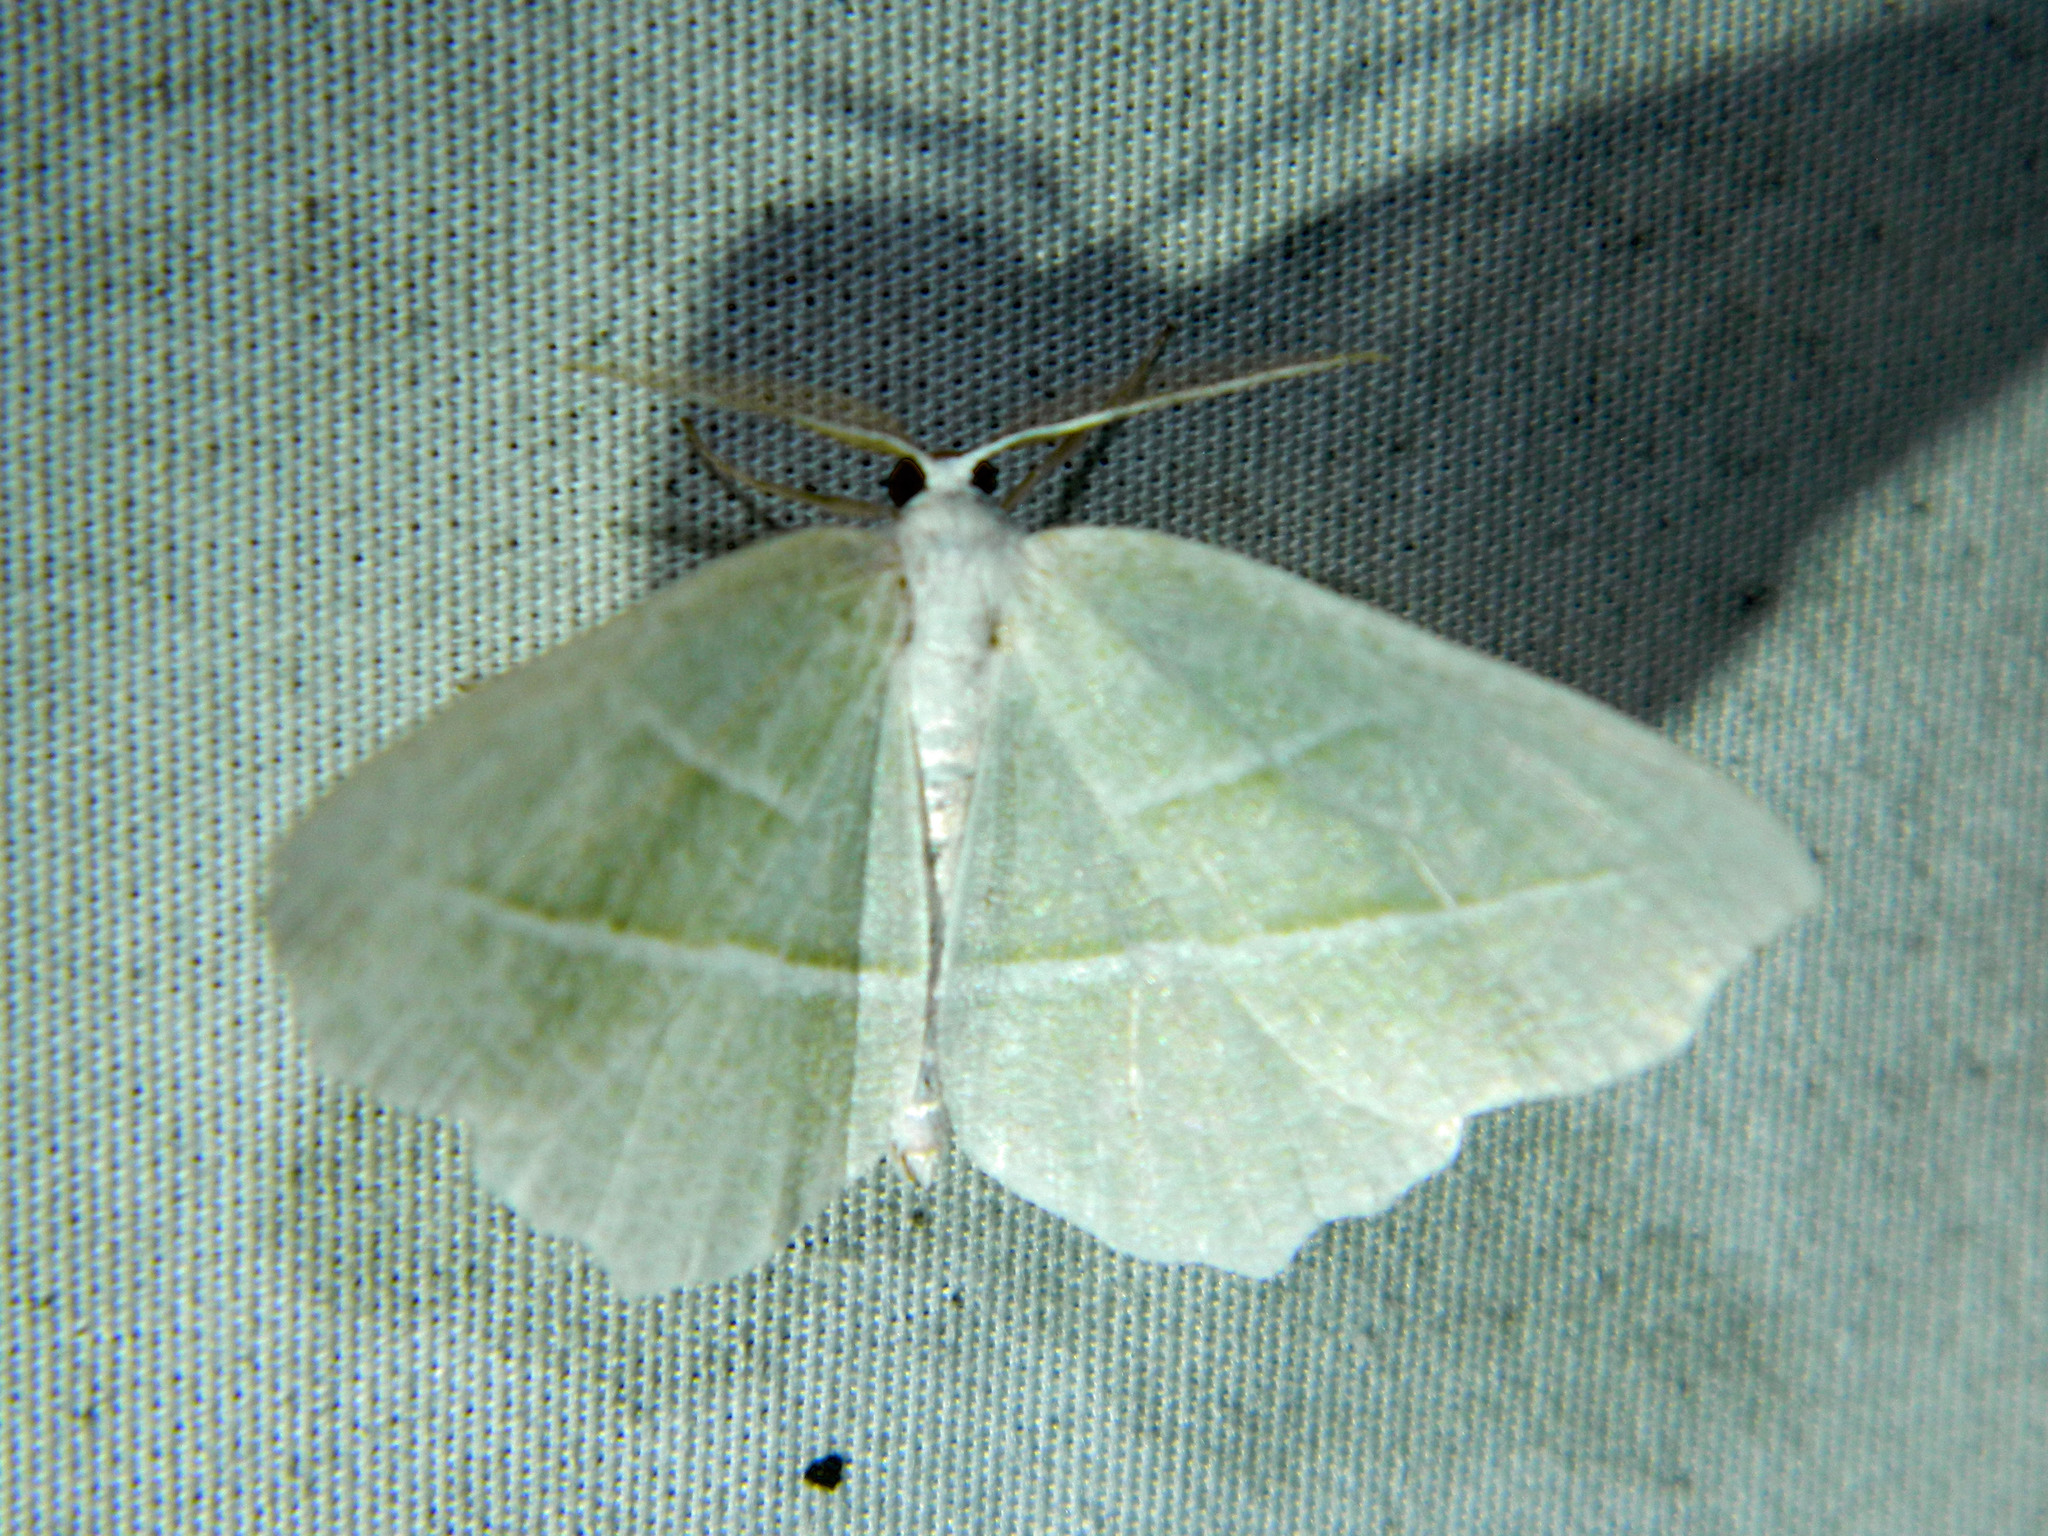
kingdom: Animalia
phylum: Arthropoda
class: Insecta
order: Lepidoptera
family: Geometridae
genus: Campaea
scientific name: Campaea perlata
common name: Fringed looper
